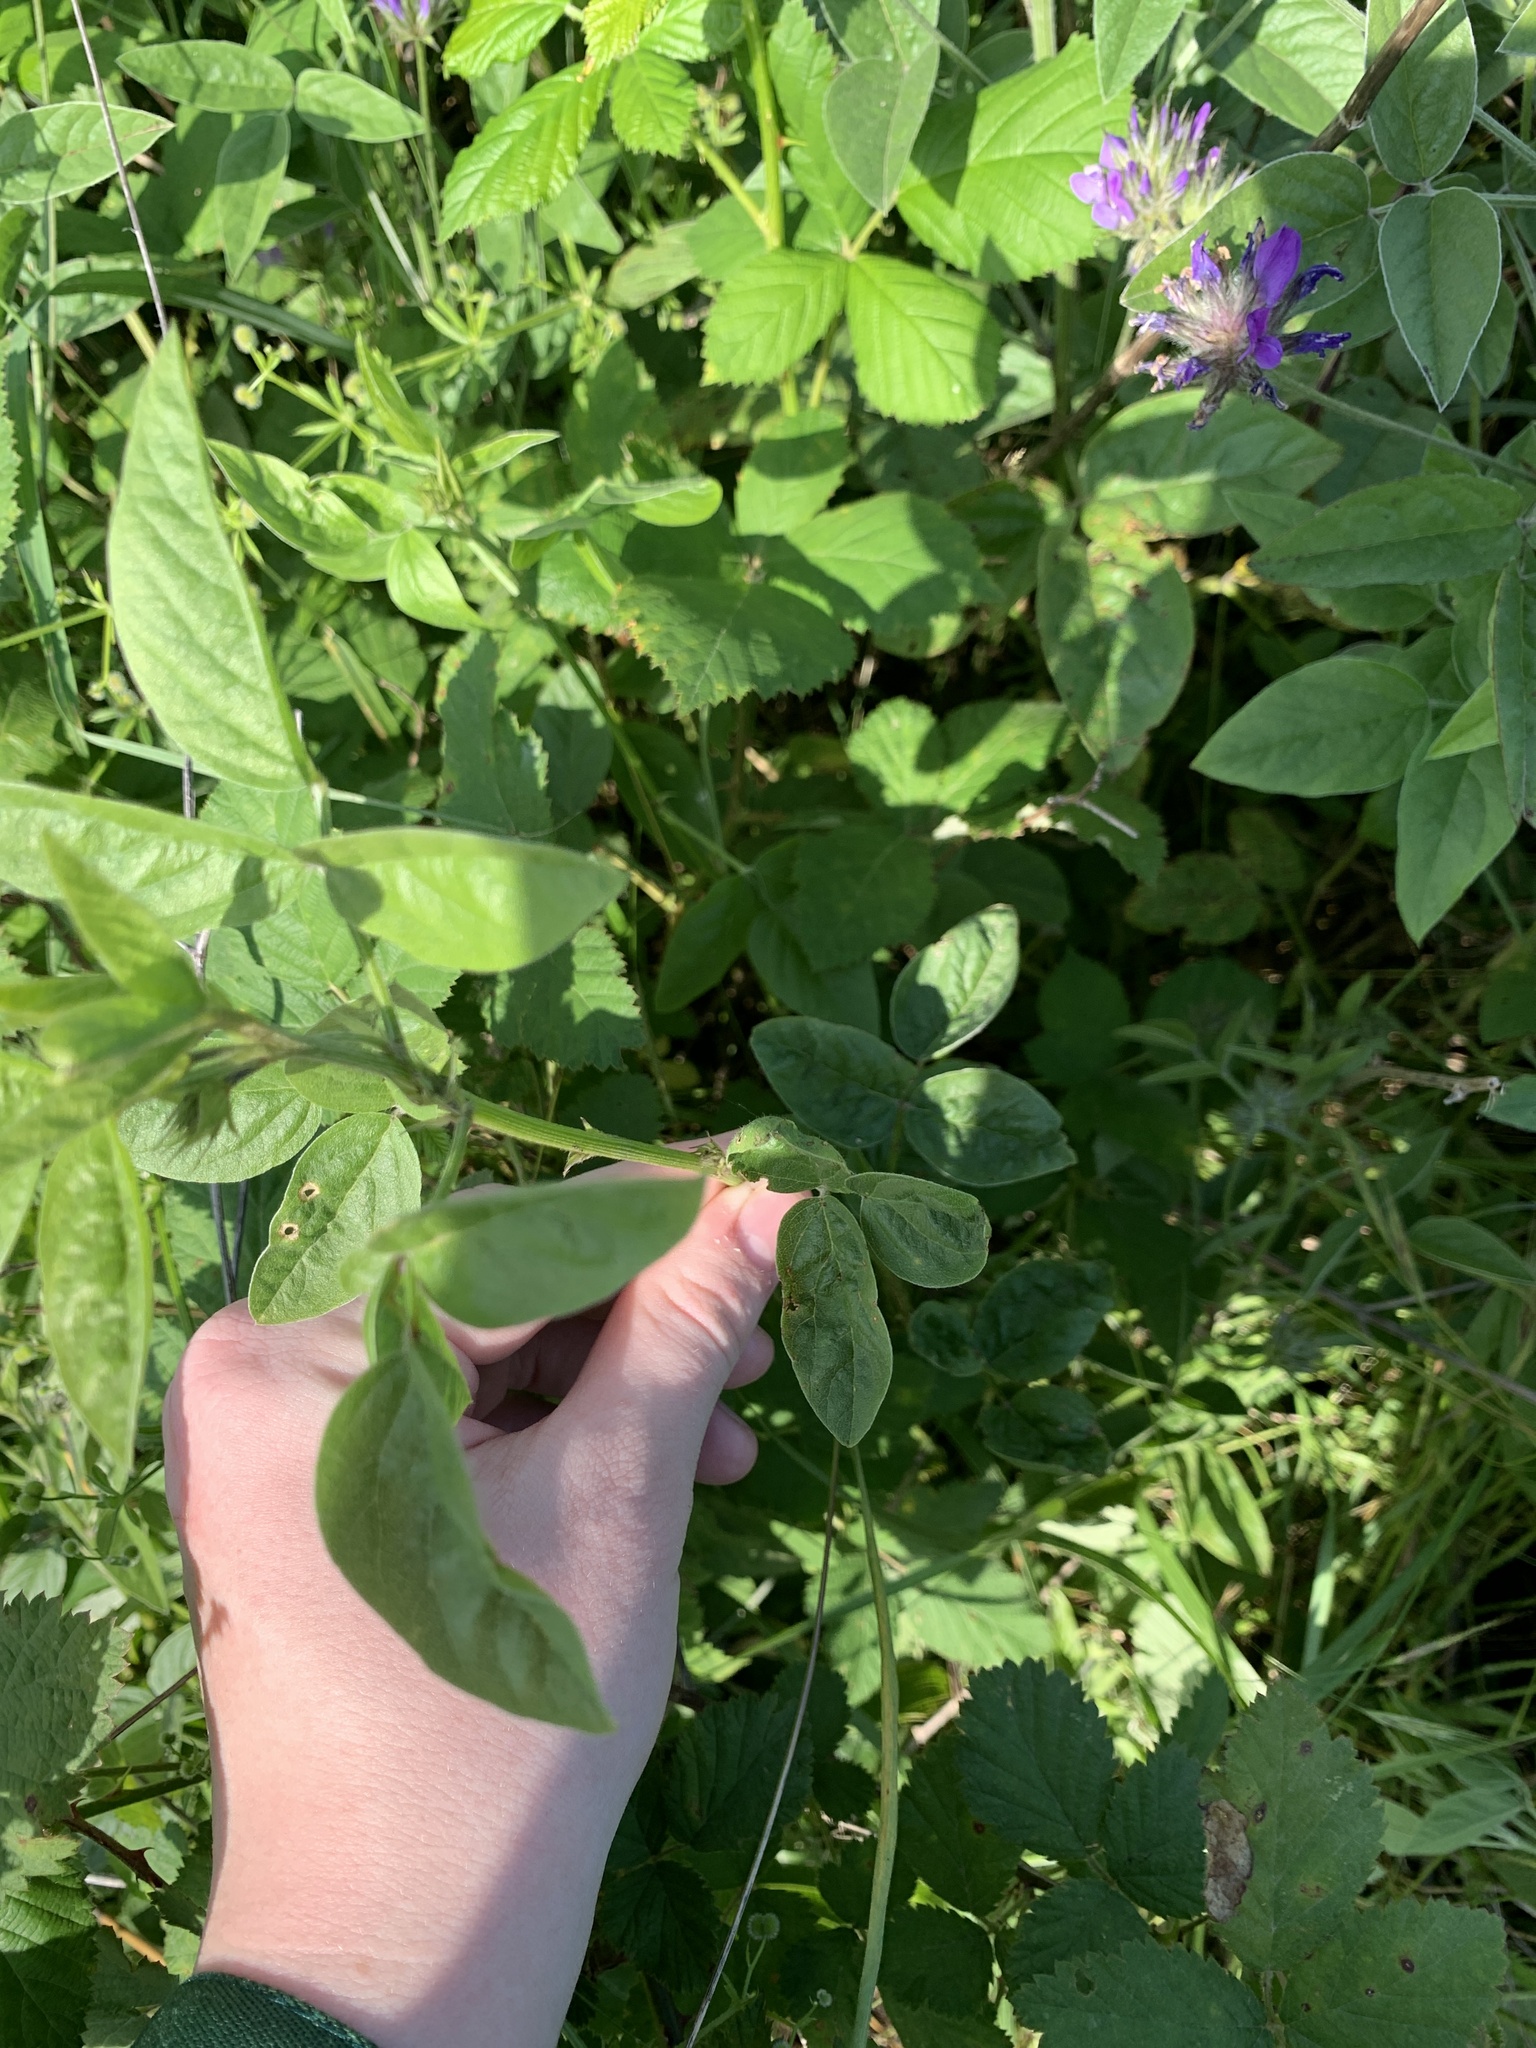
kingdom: Plantae
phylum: Tracheophyta
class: Magnoliopsida
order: Fabales
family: Fabaceae
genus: Bituminaria
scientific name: Bituminaria bituminosa
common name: Arabian pea
